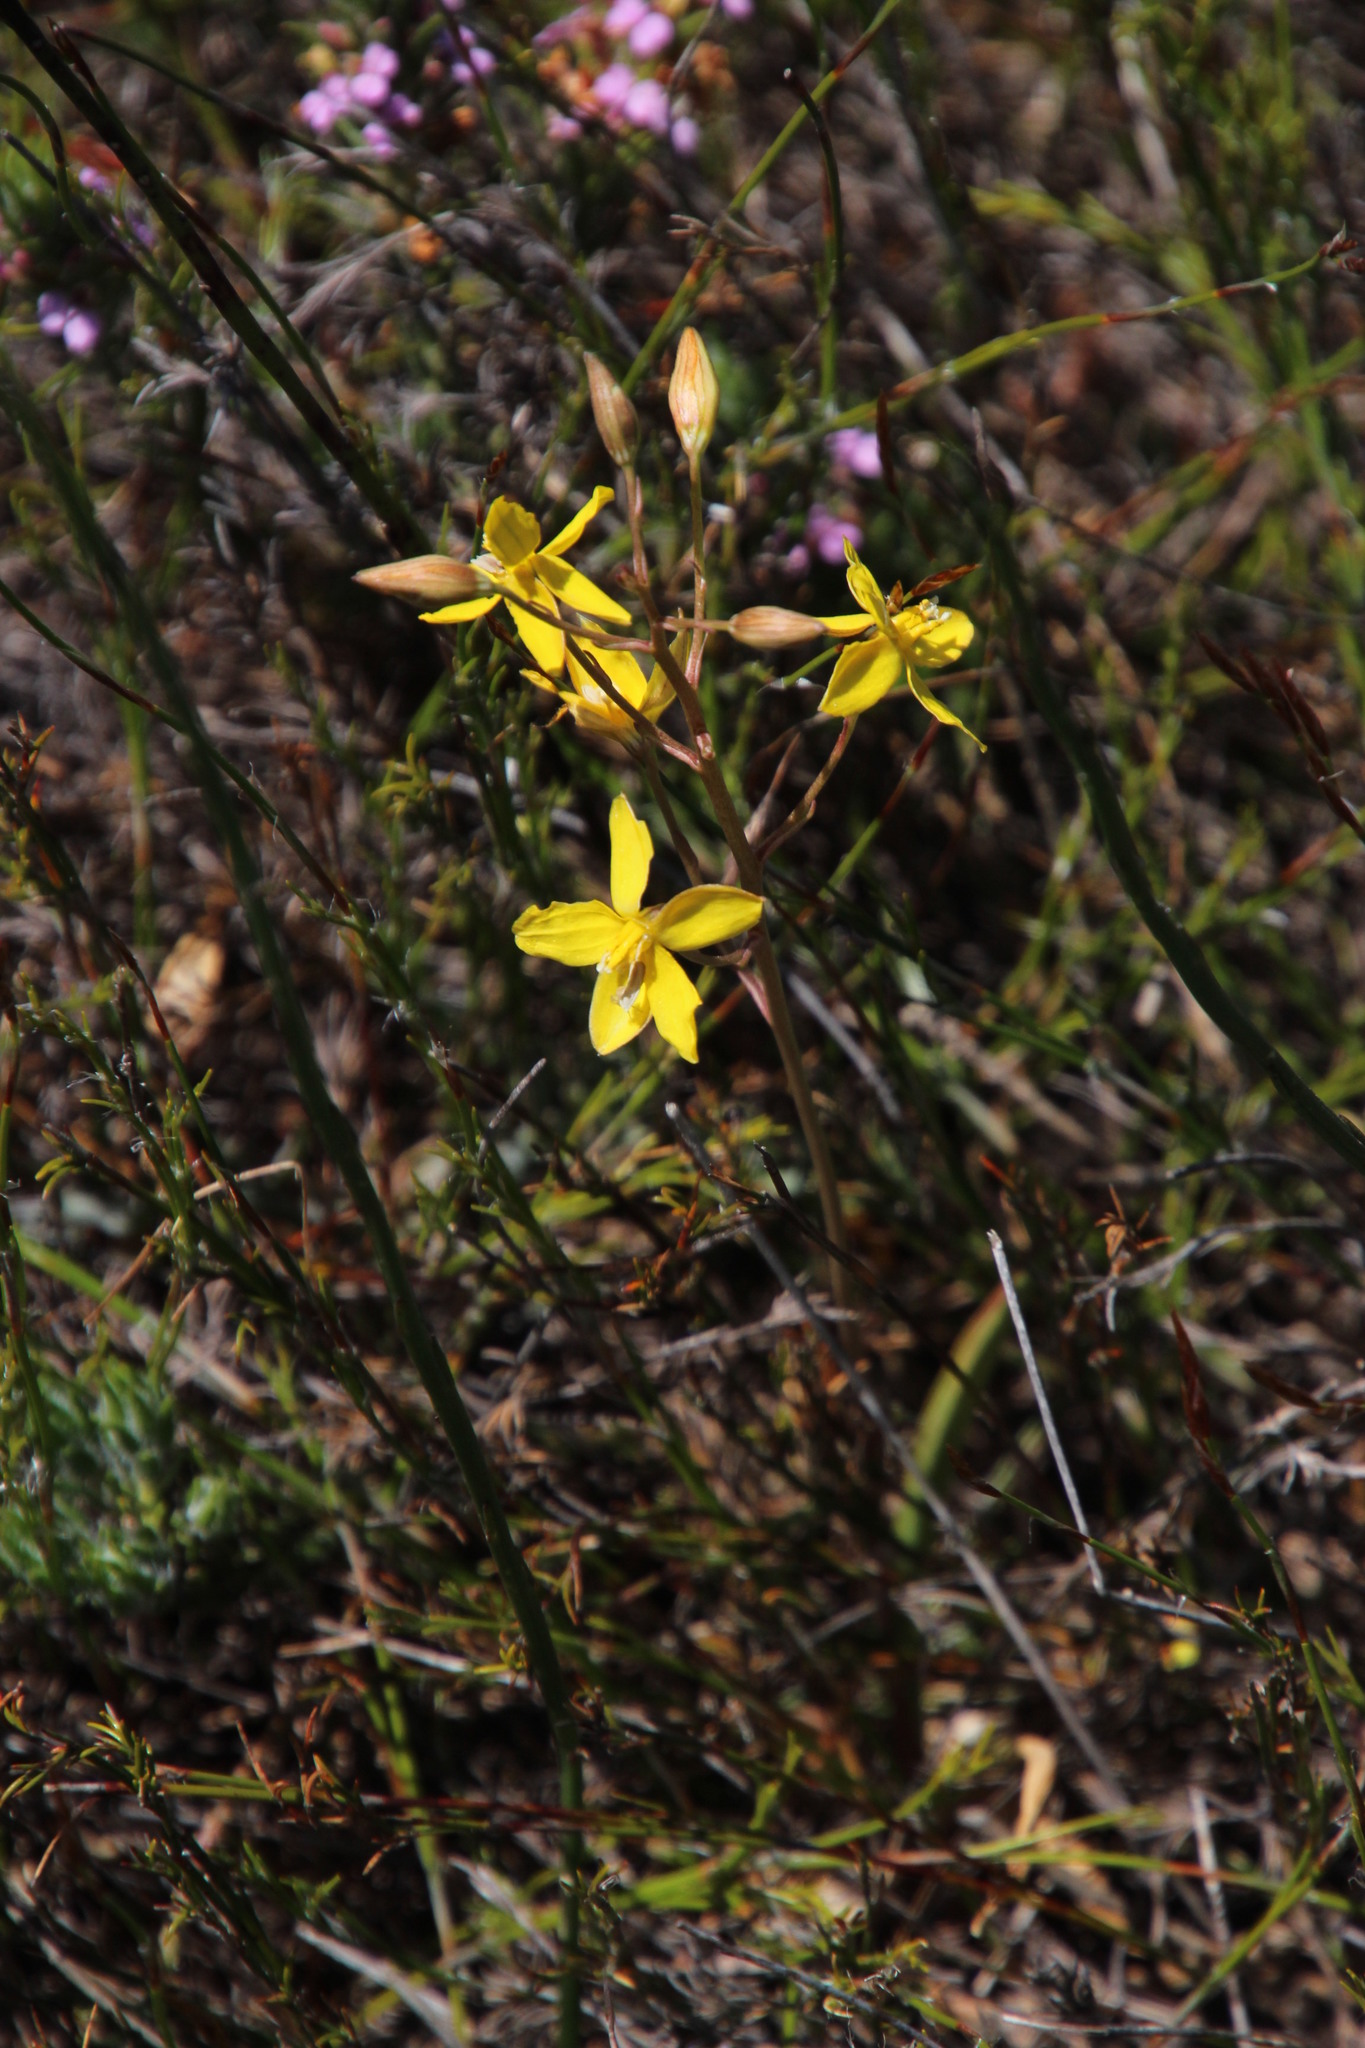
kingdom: Plantae
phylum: Tracheophyta
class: Liliopsida
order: Asparagales
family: Tecophilaeaceae
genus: Cyanella
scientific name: Cyanella lutea
